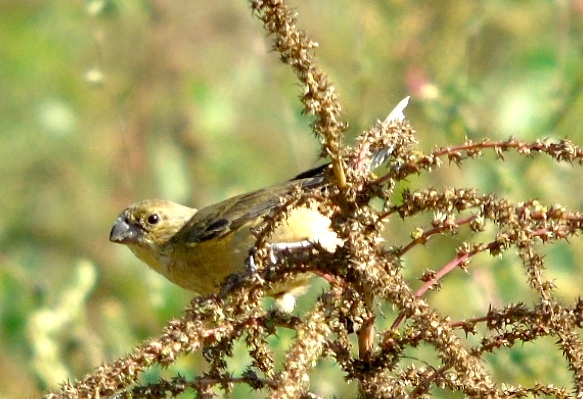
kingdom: Animalia
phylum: Chordata
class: Aves
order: Passeriformes
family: Thraupidae
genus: Sporophila
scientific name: Sporophila torqueola
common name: White-collared seedeater
